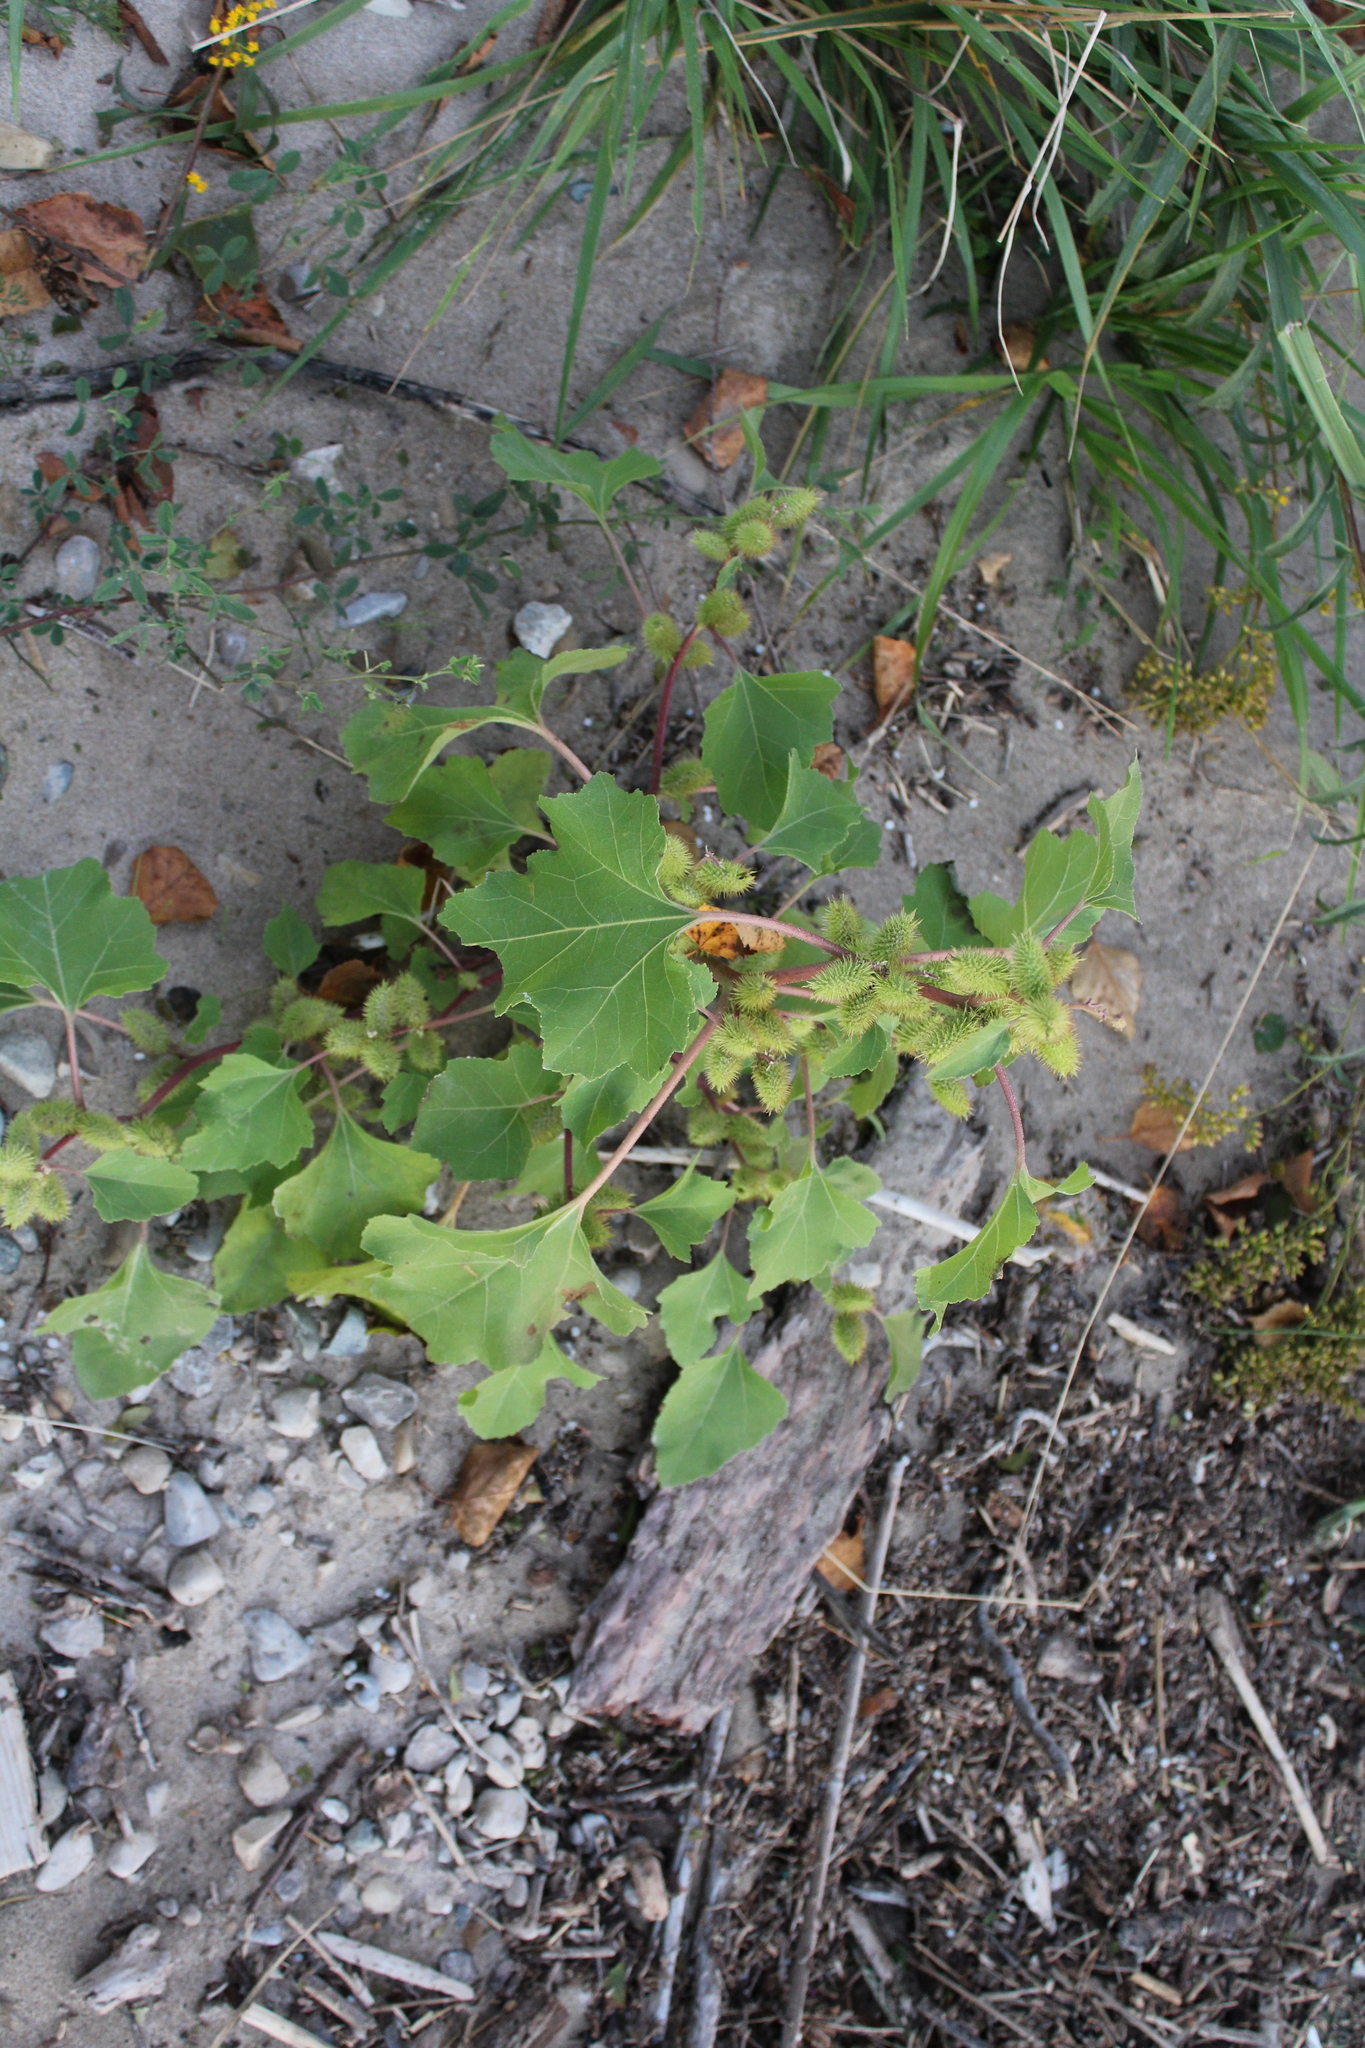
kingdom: Plantae
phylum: Tracheophyta
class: Magnoliopsida
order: Asterales
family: Asteraceae
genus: Xanthium
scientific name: Xanthium strumarium
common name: Rough cocklebur
